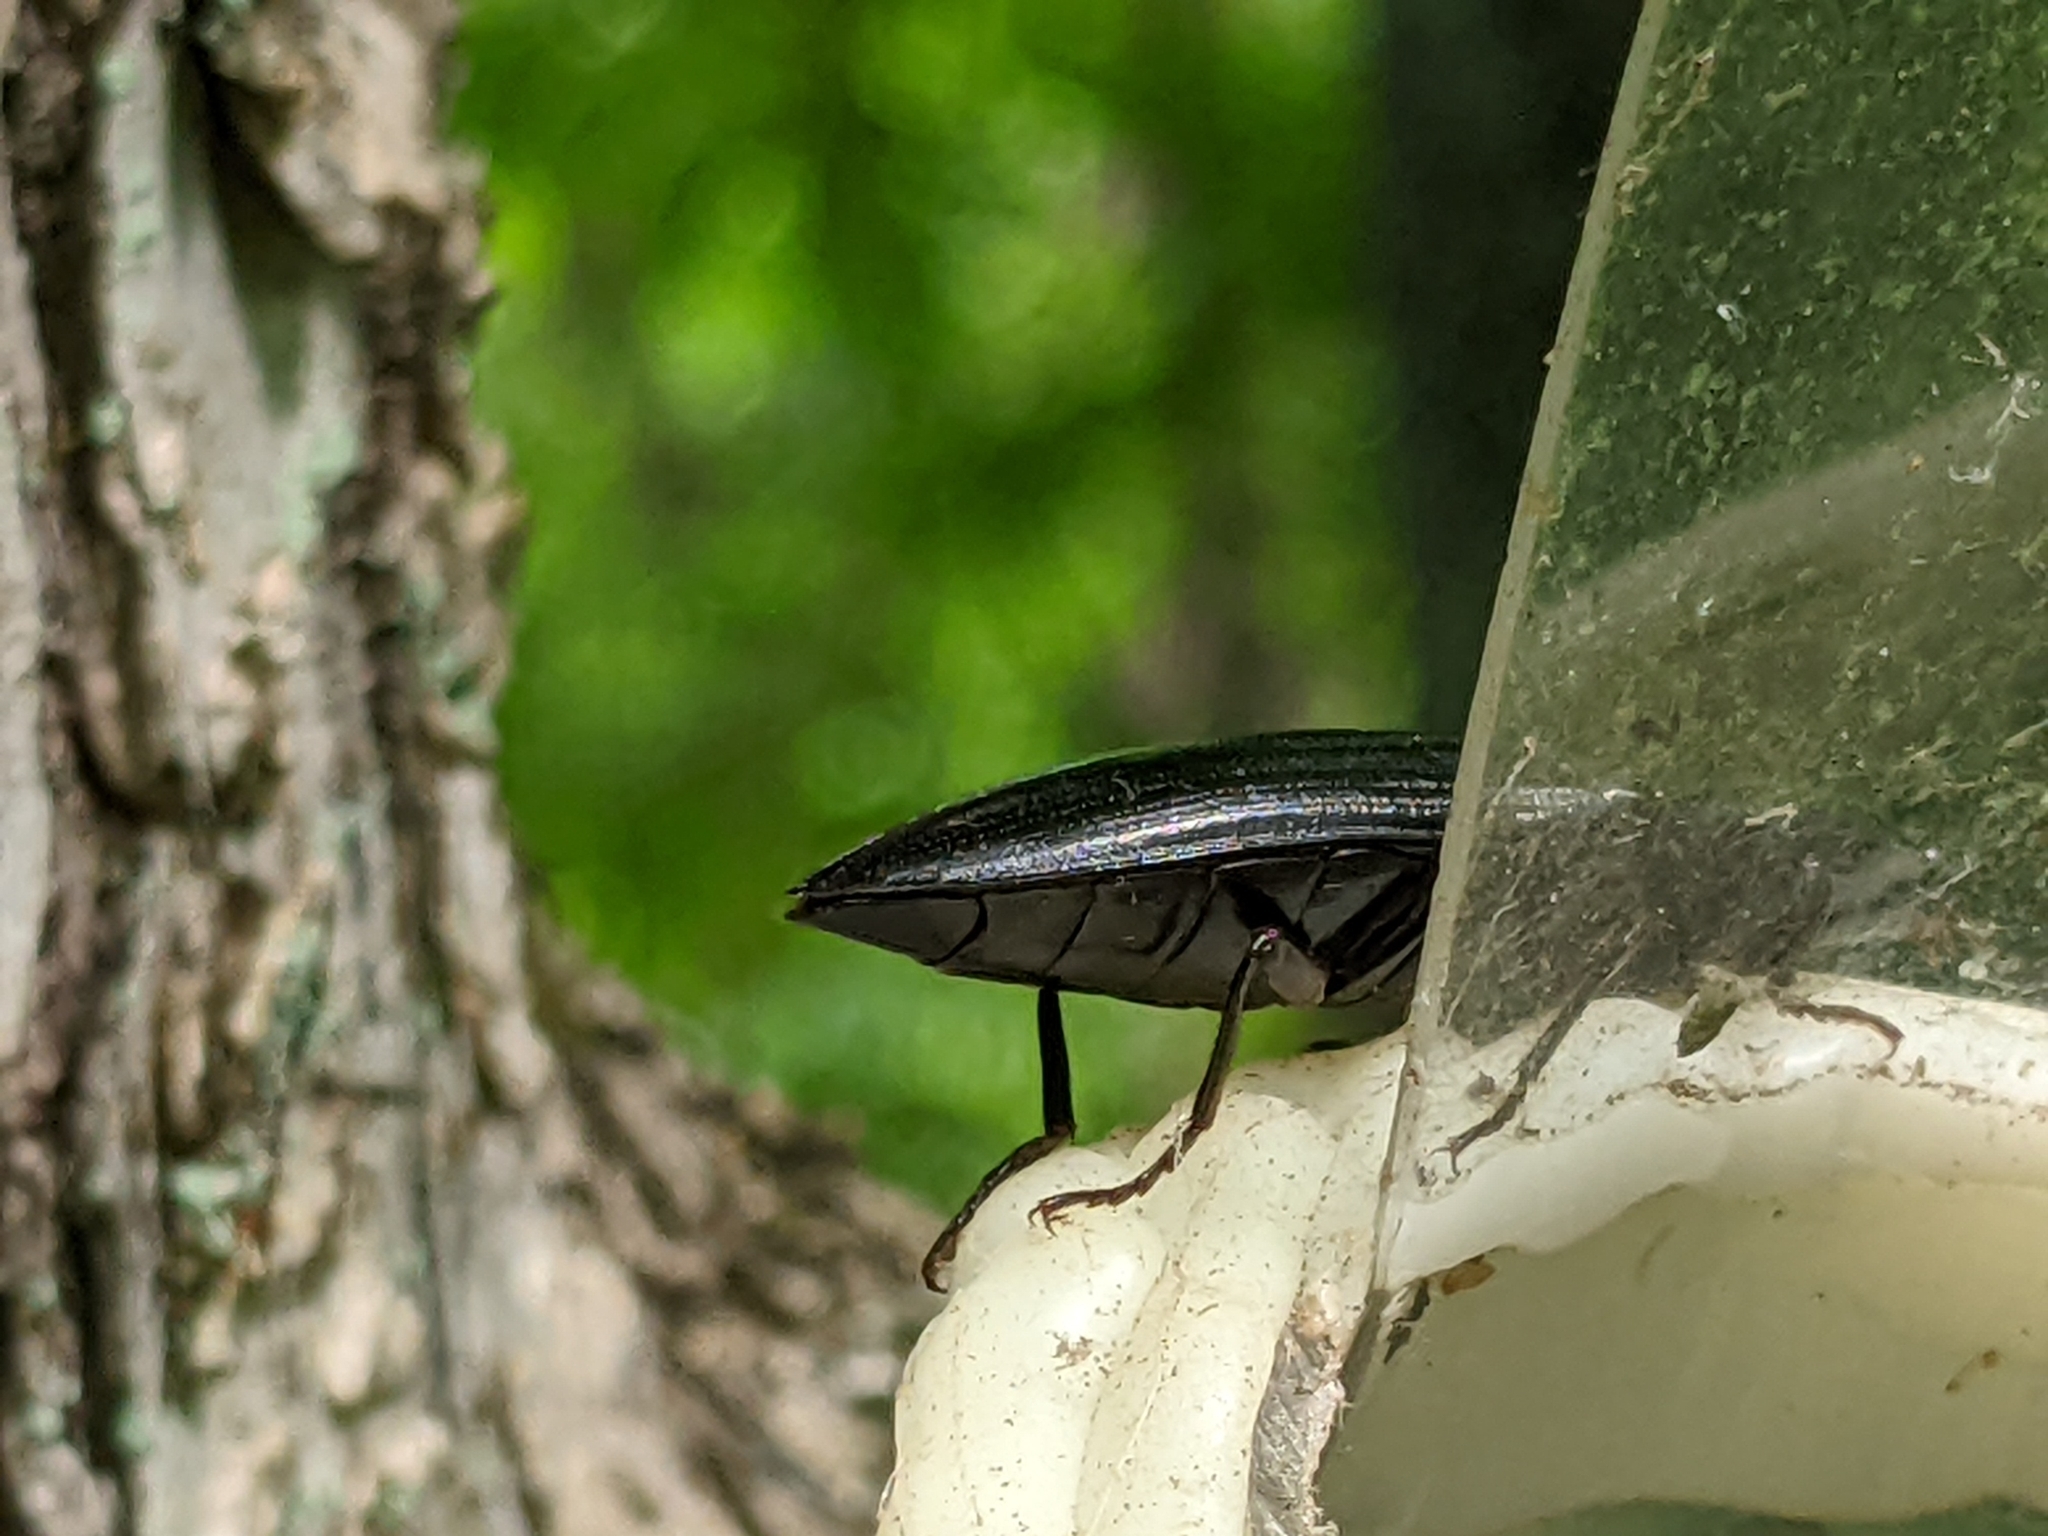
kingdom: Animalia
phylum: Arthropoda
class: Insecta
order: Coleoptera
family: Elateridae
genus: Neopristilophus
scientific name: Neopristilophus
